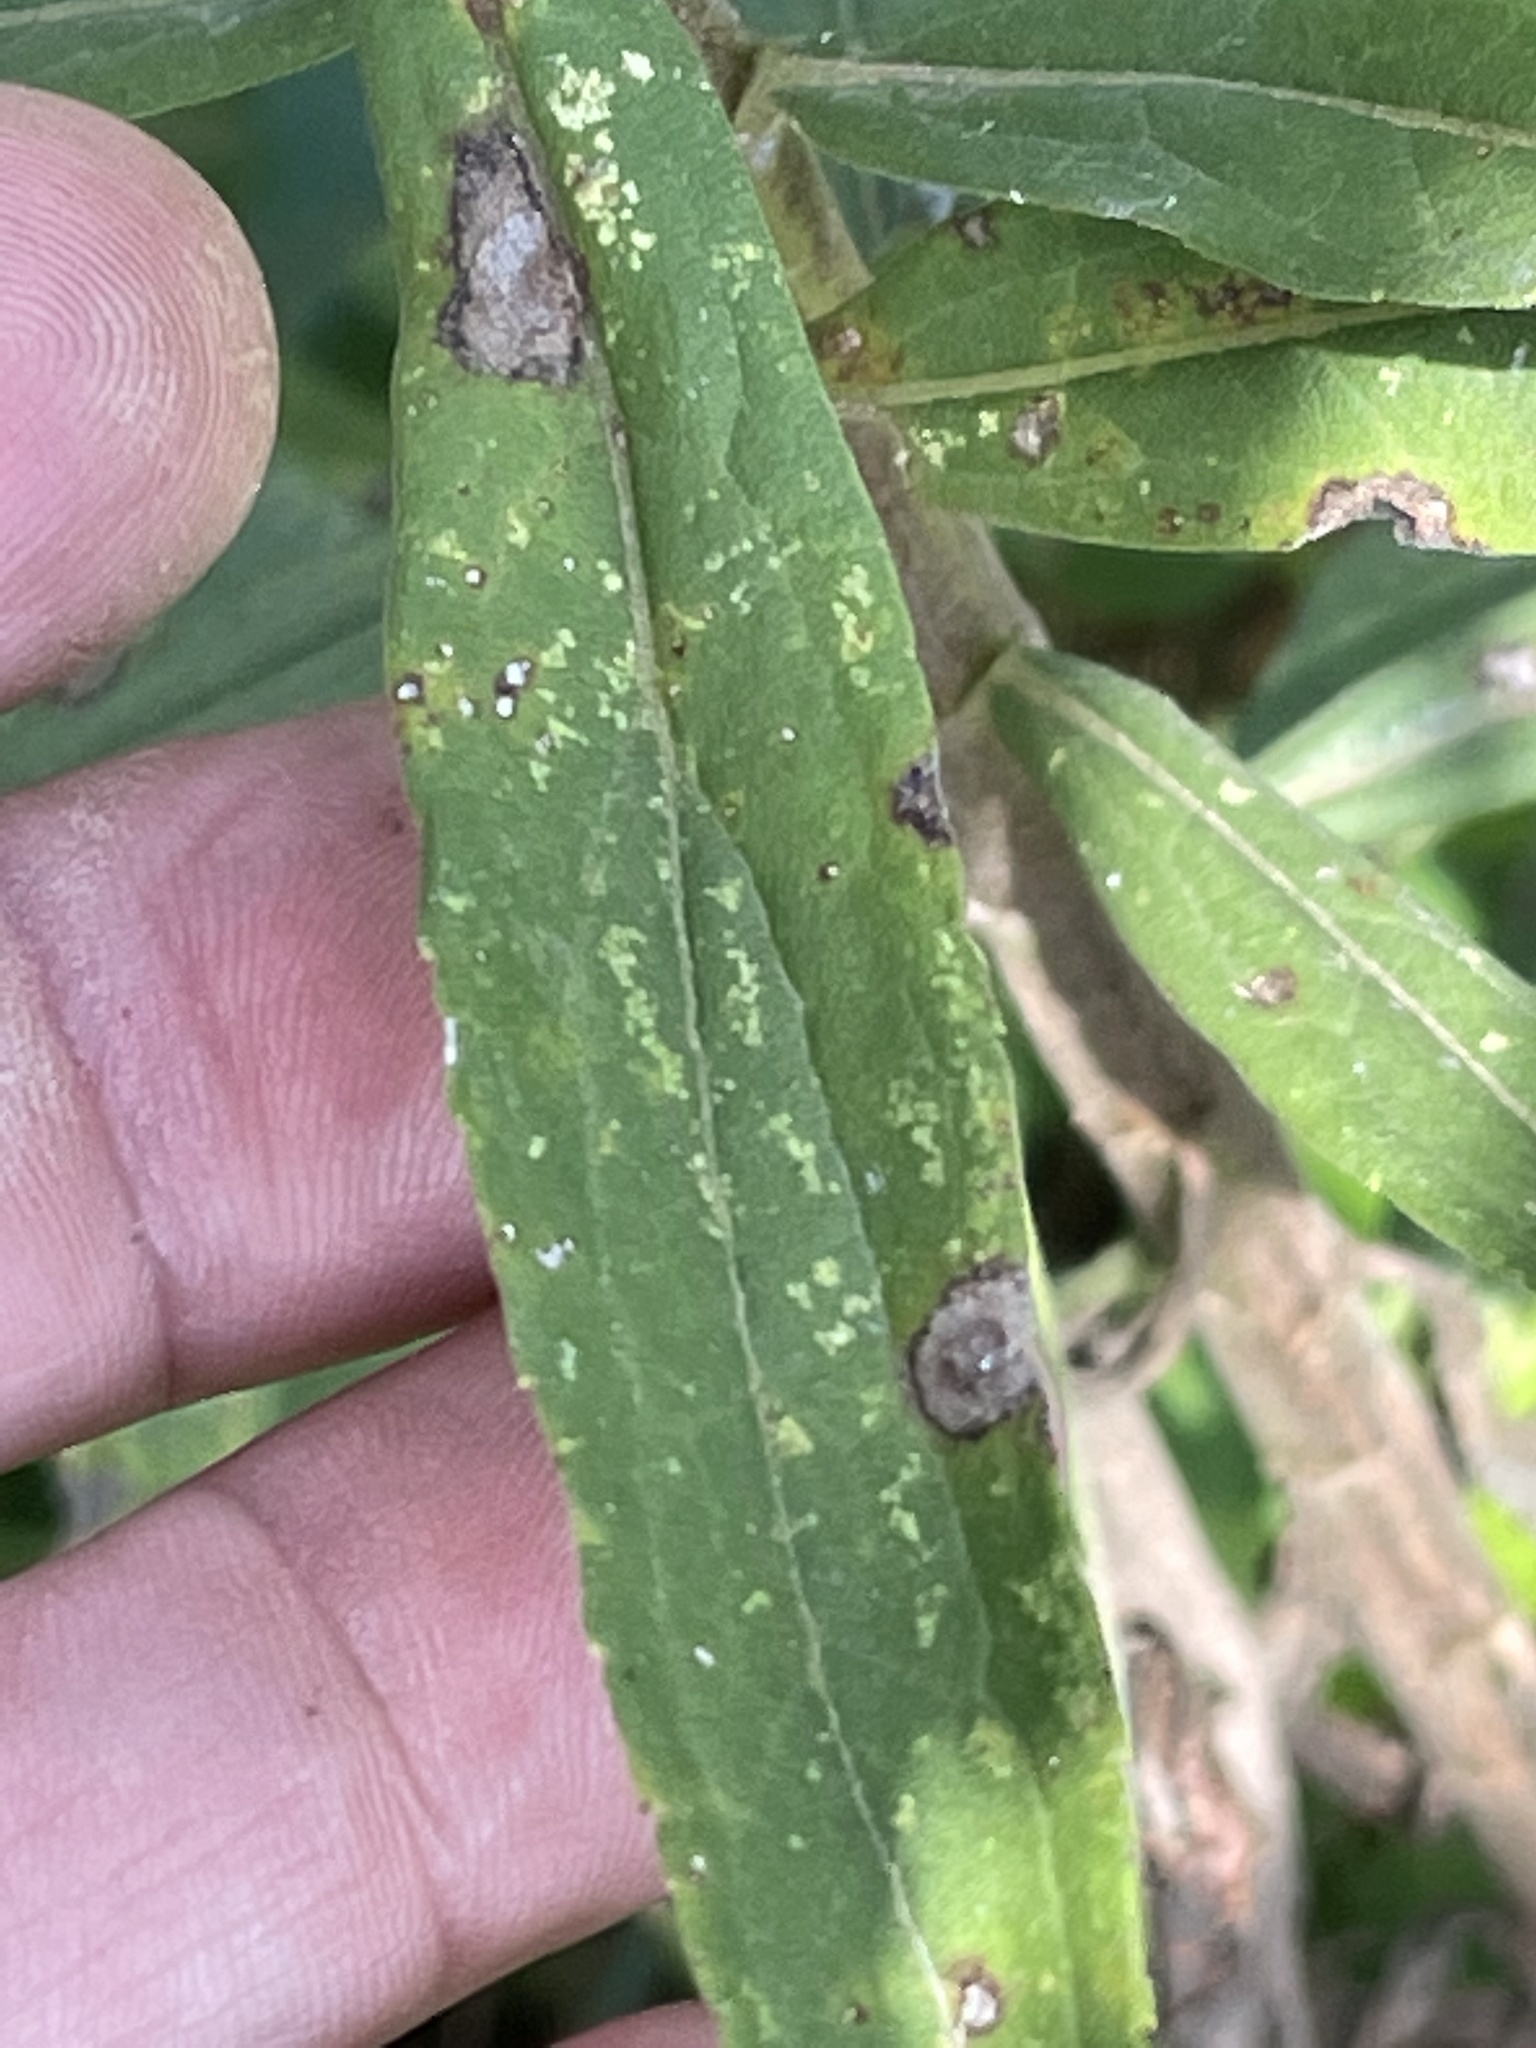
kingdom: Plantae
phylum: Tracheophyta
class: Magnoliopsida
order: Asterales
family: Asteraceae
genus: Solidago
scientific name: Solidago altissima
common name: Late goldenrod
